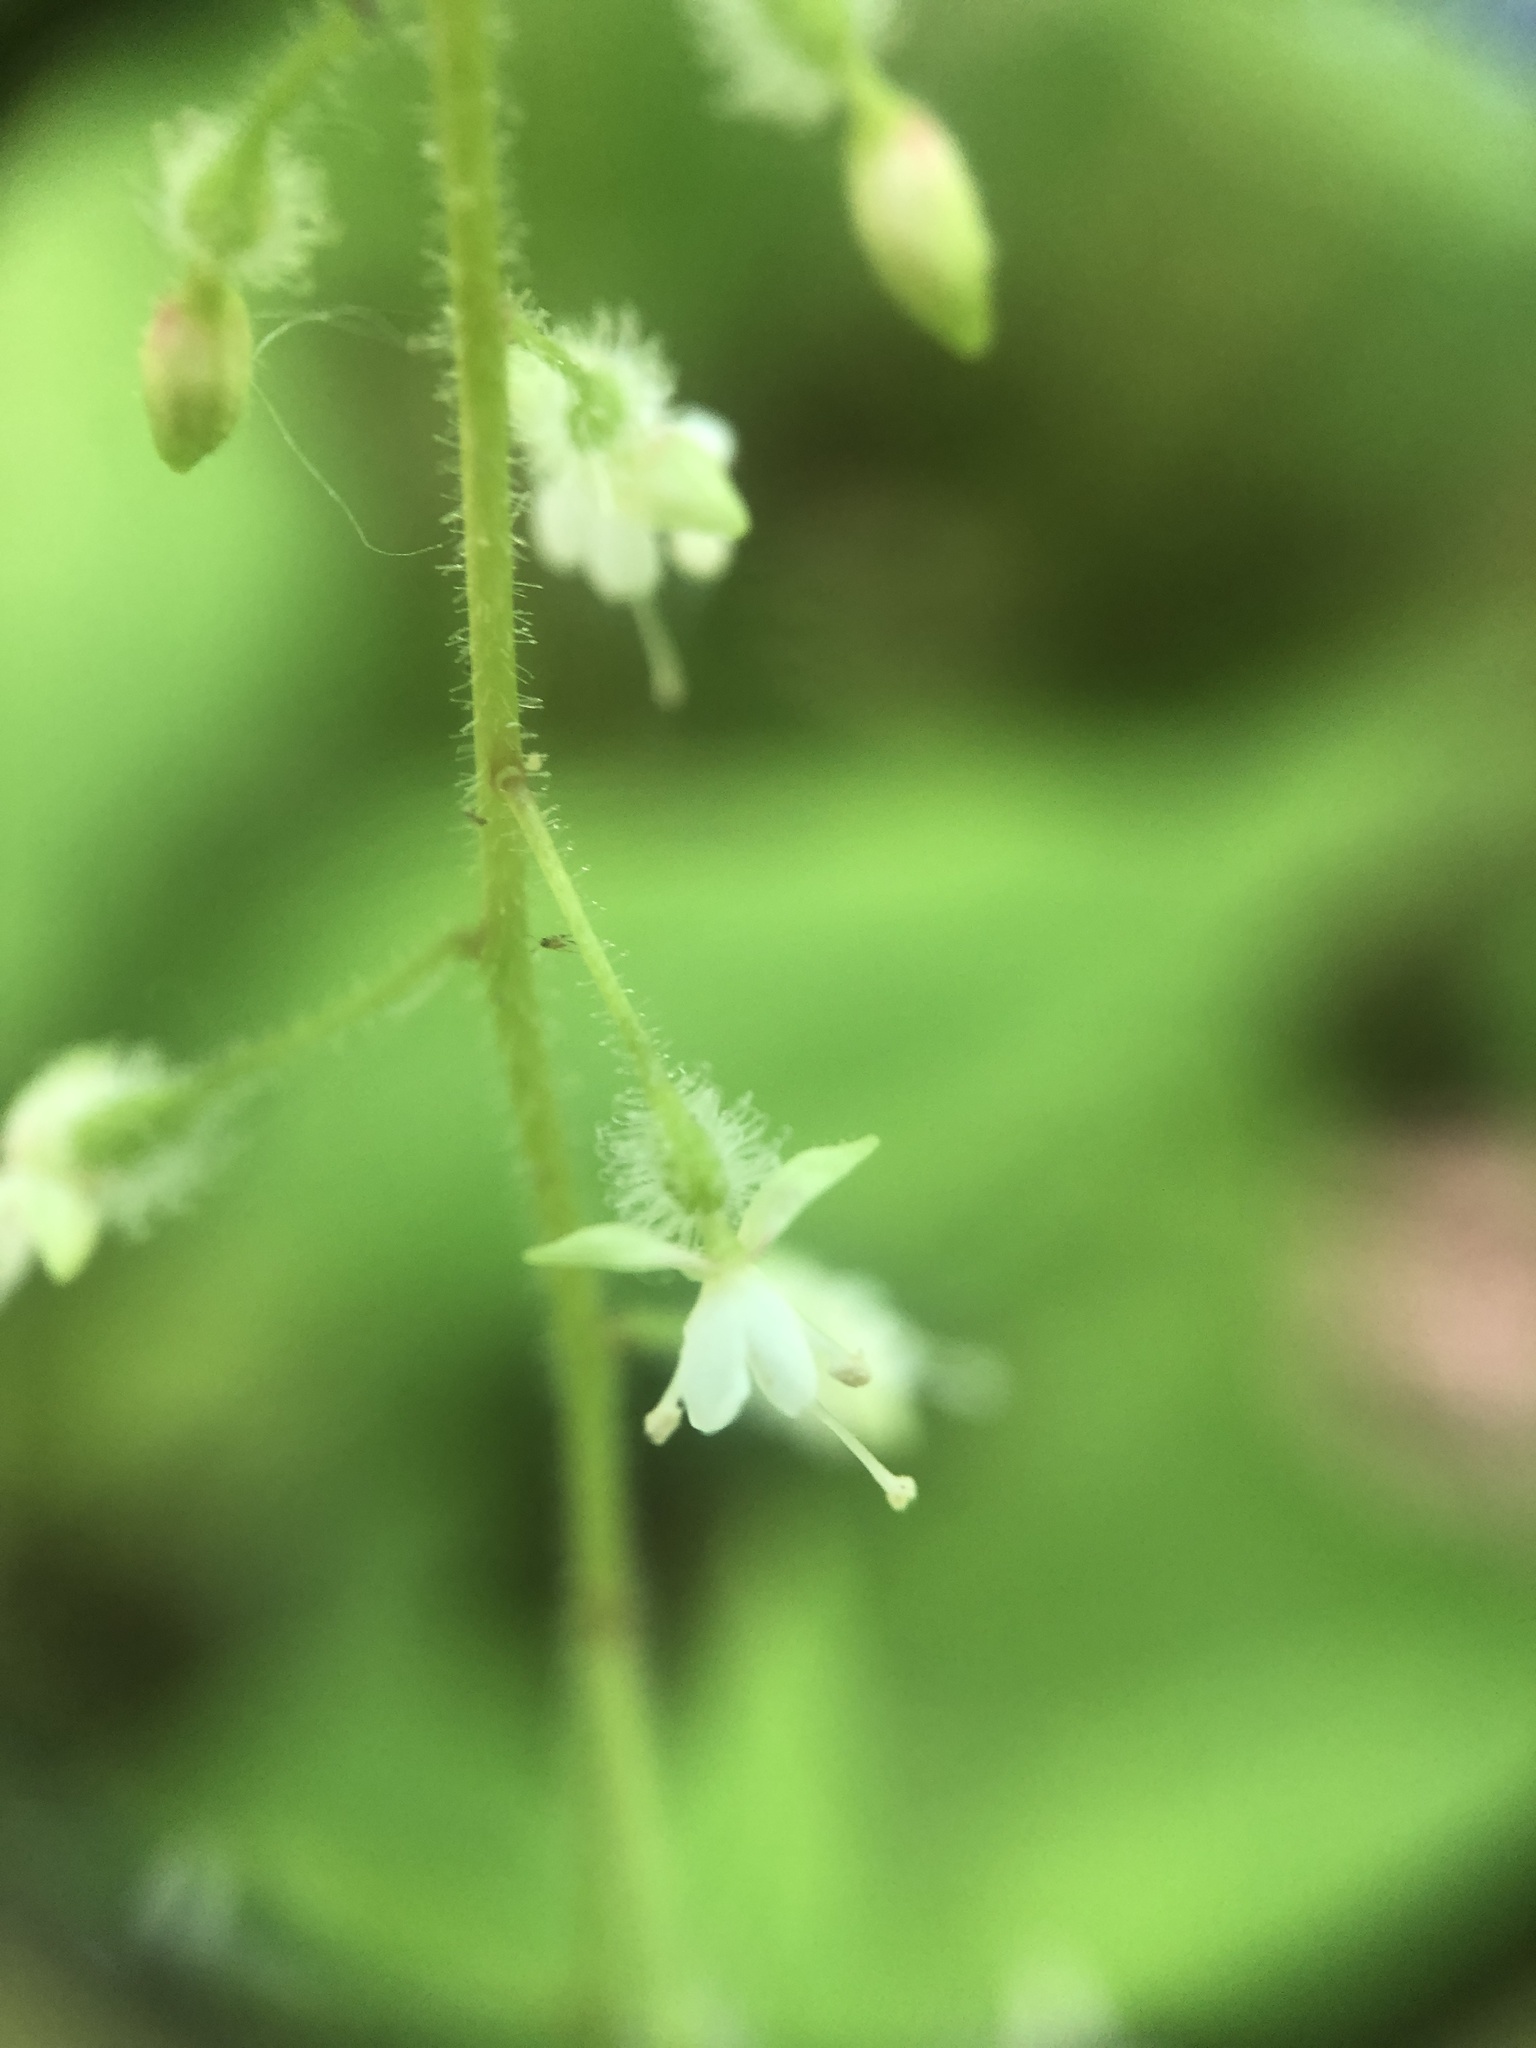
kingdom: Plantae
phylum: Tracheophyta
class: Magnoliopsida
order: Myrtales
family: Onagraceae
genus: Circaea
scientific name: Circaea canadensis
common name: Broad-leaved enchanter's nightshade
